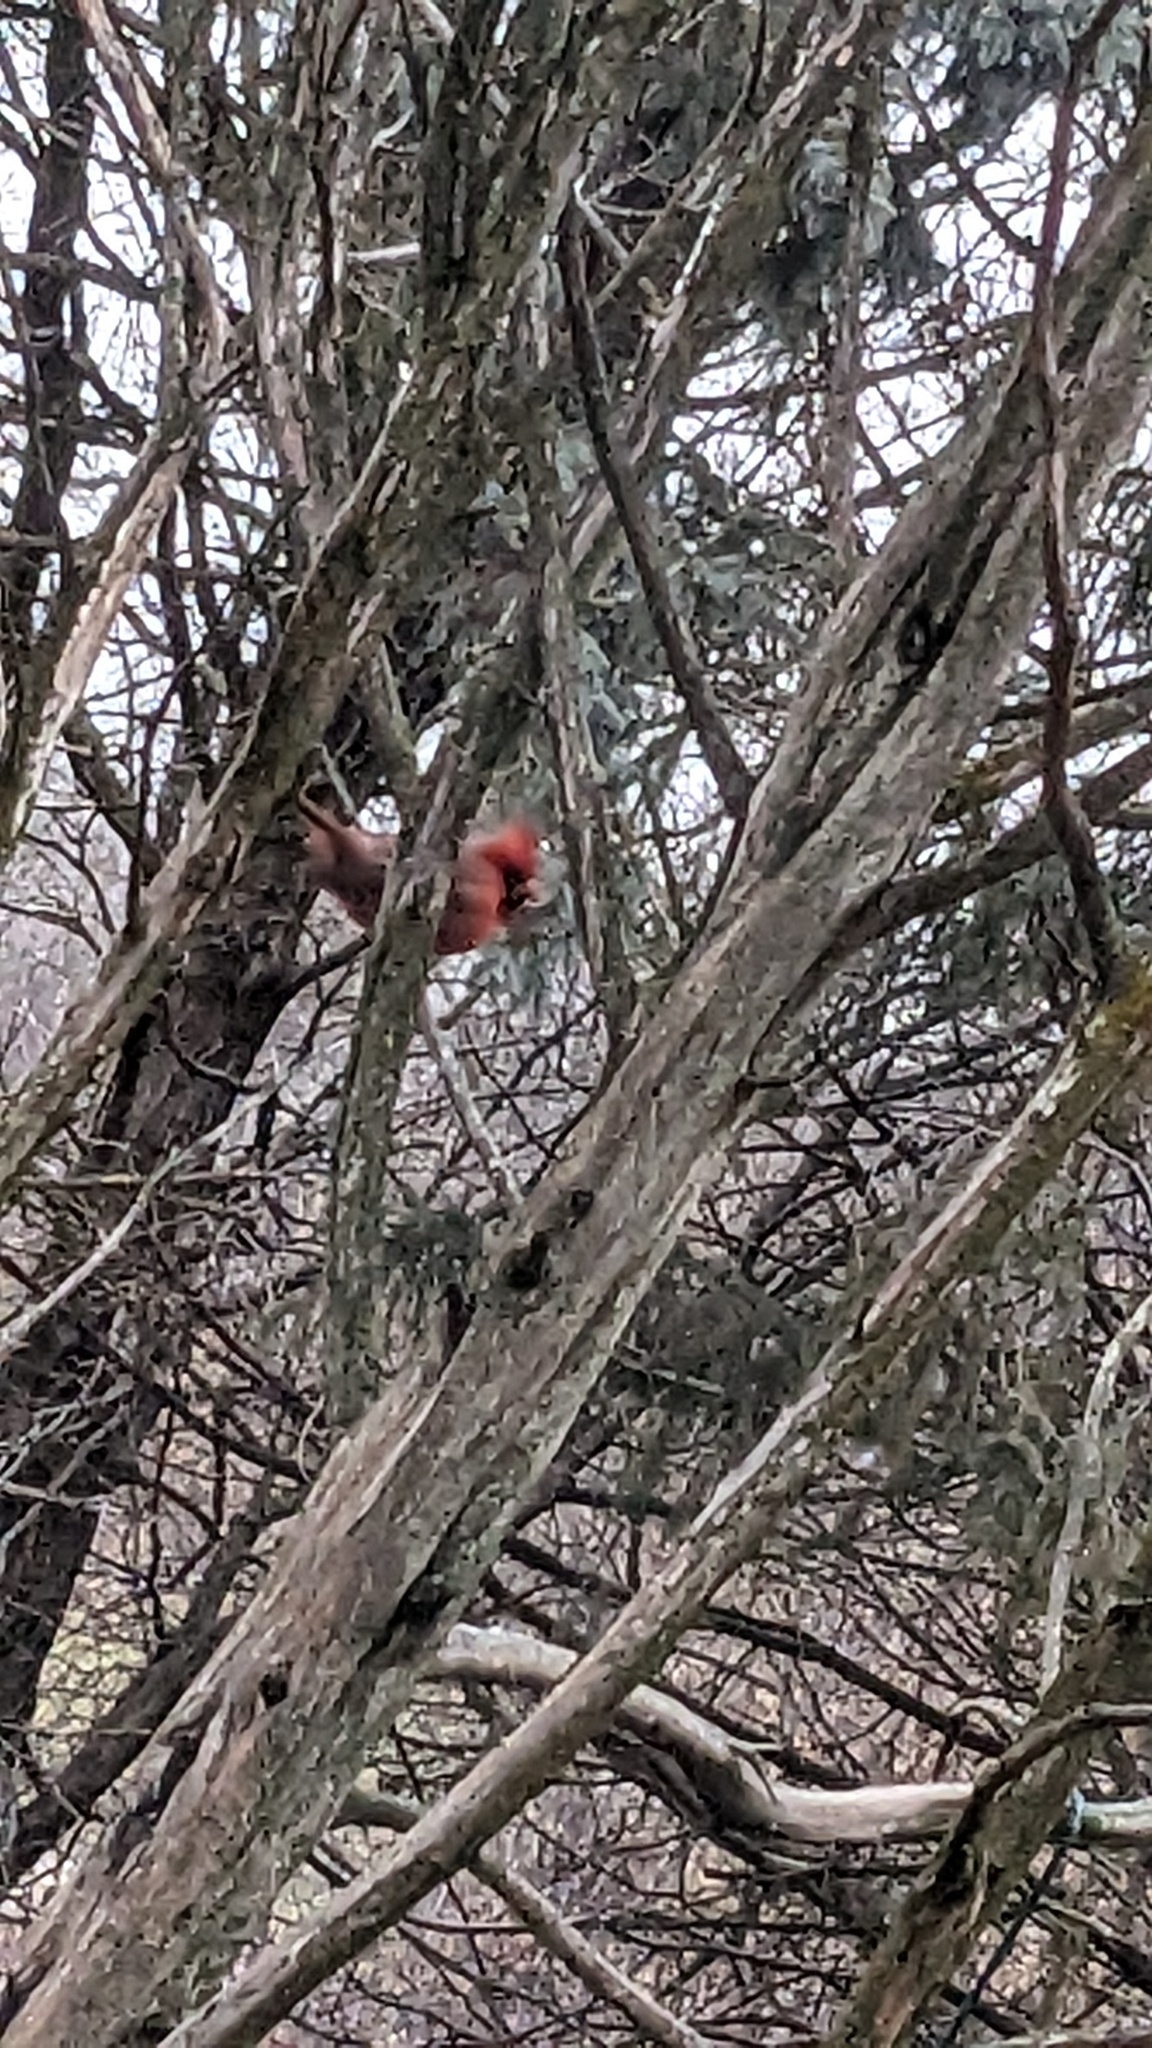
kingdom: Animalia
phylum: Chordata
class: Aves
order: Passeriformes
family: Cardinalidae
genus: Cardinalis
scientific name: Cardinalis cardinalis
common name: Northern cardinal
